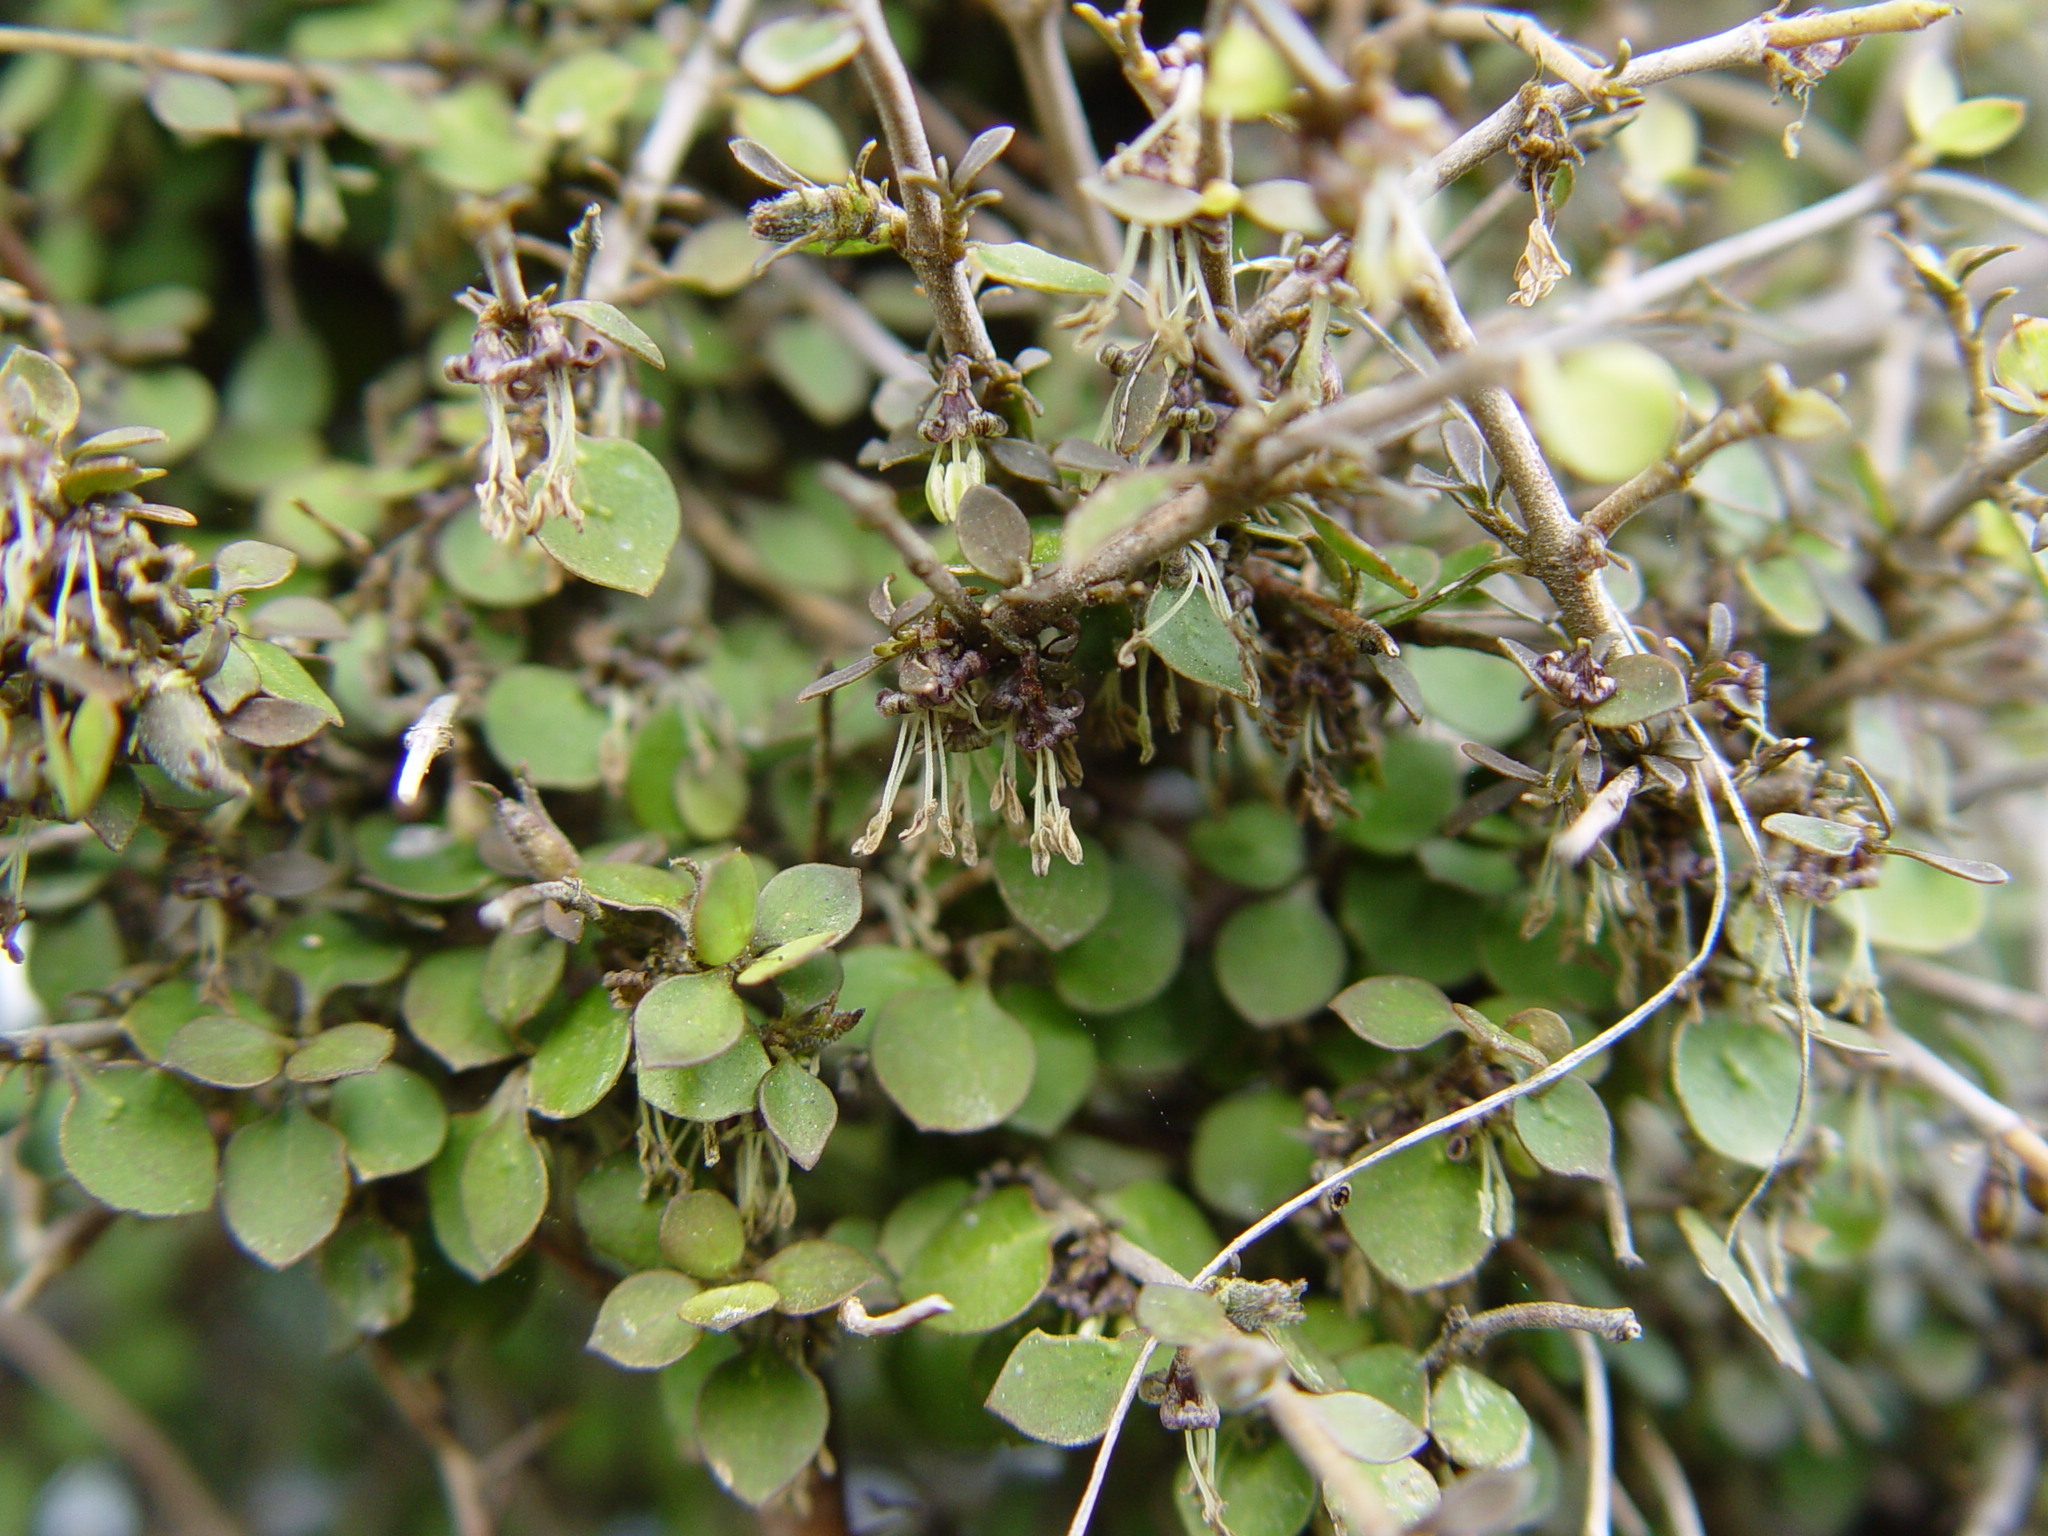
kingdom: Plantae
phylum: Tracheophyta
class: Magnoliopsida
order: Gentianales
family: Rubiaceae
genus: Coprosma
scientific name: Coprosma rhamnoides
